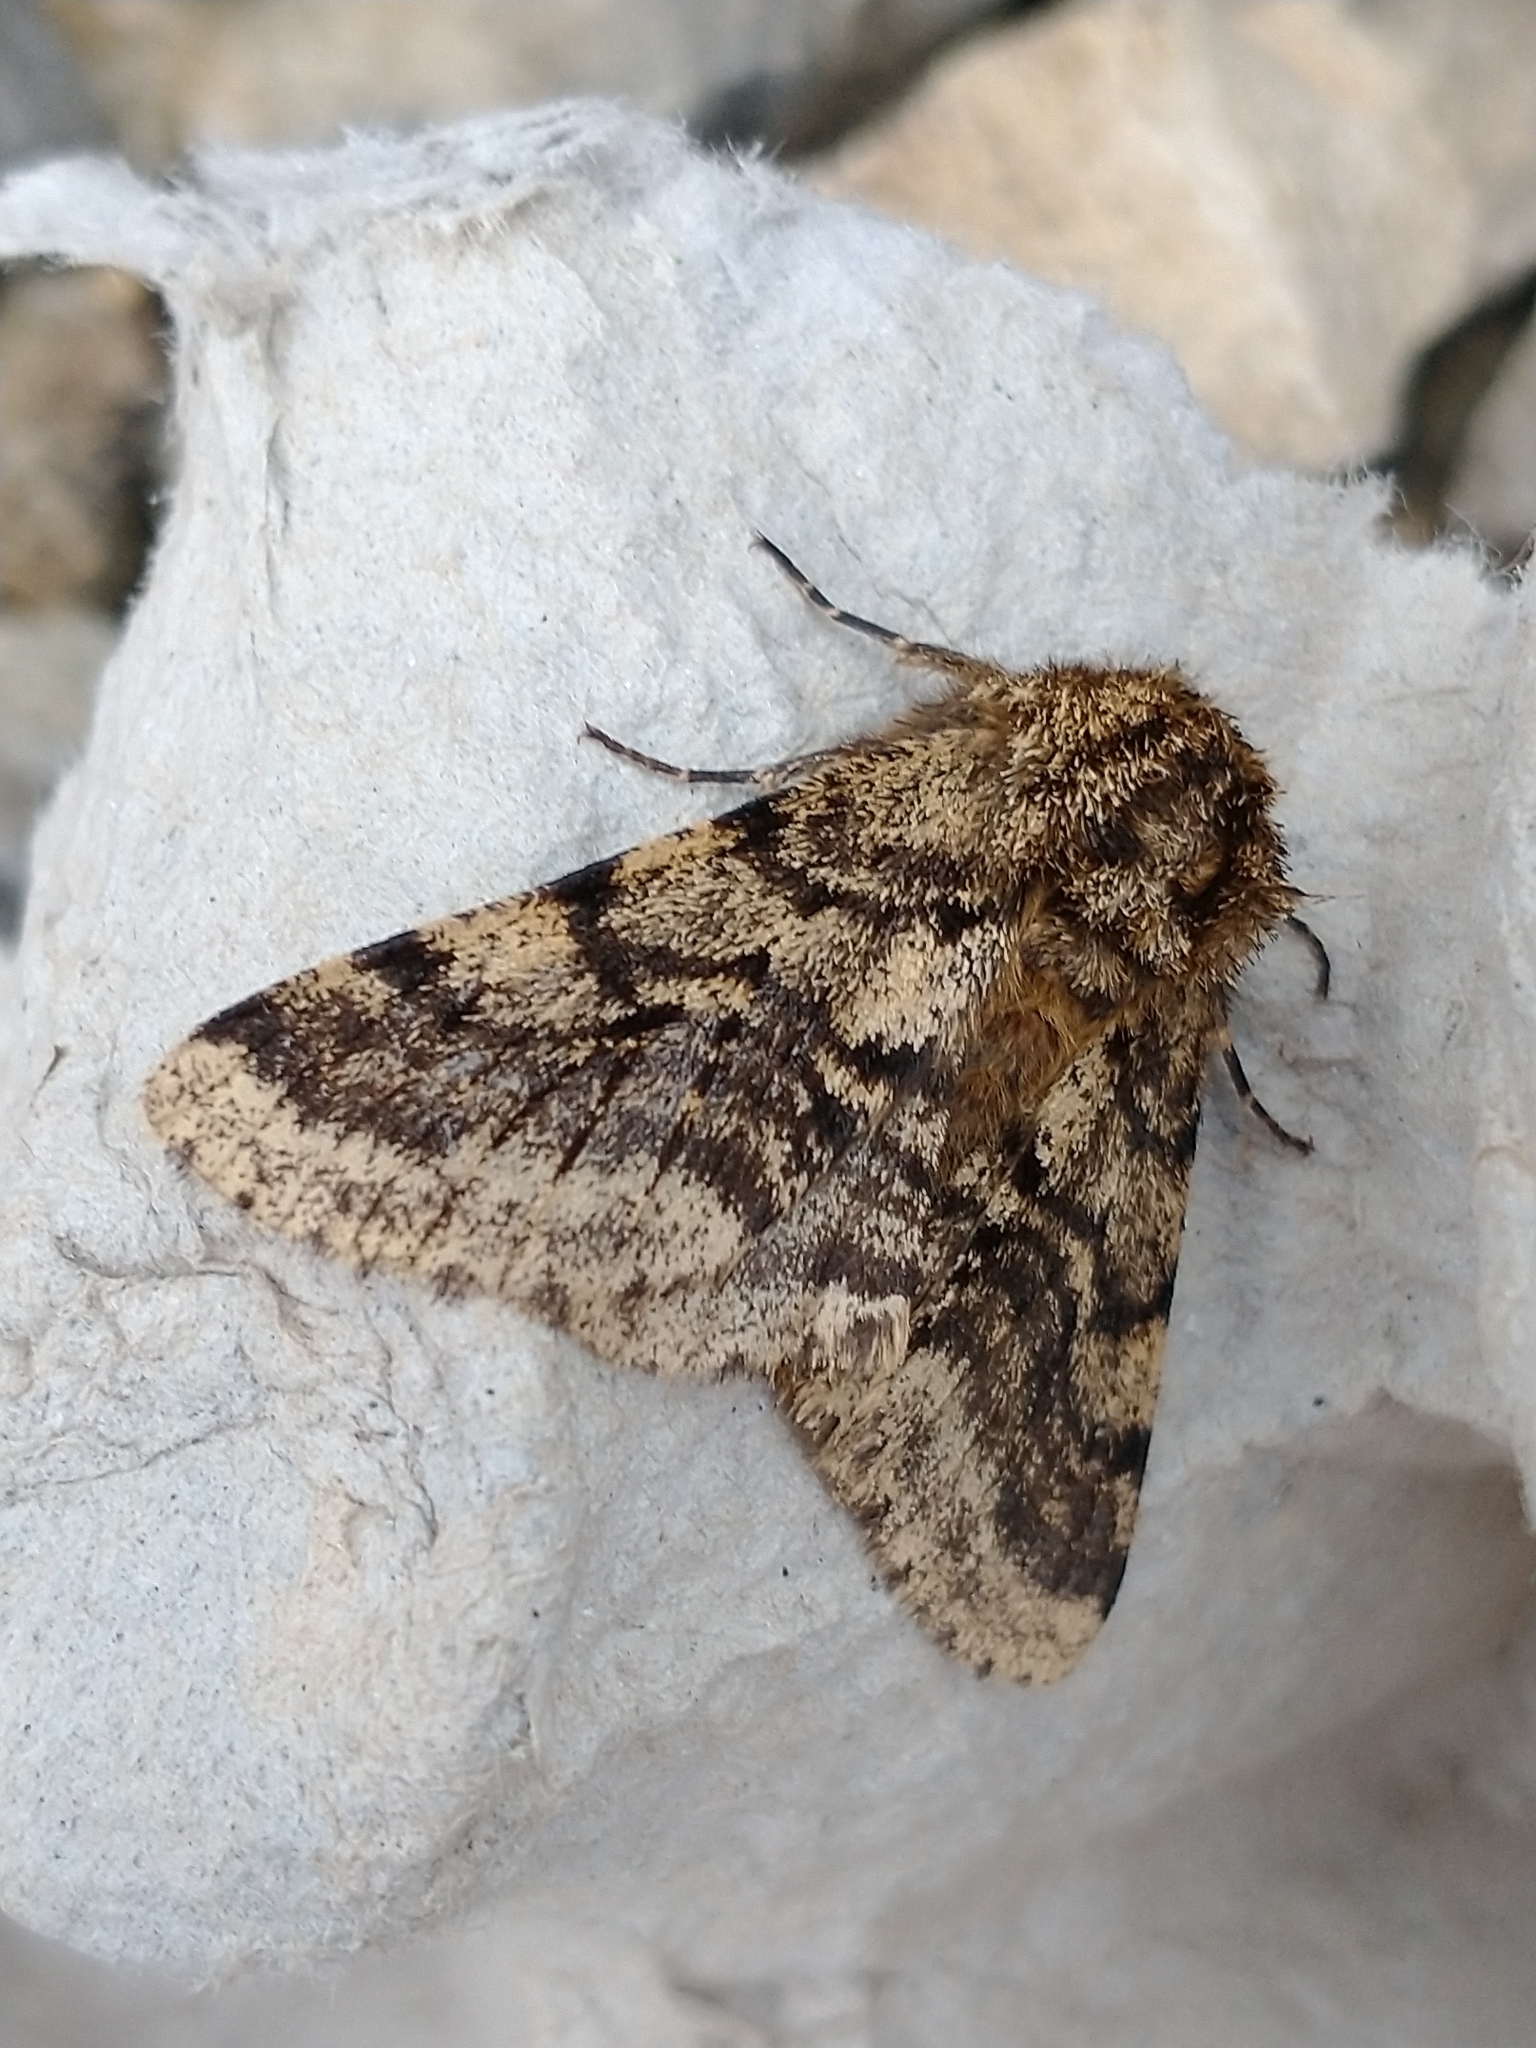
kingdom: Animalia
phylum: Arthropoda
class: Insecta
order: Lepidoptera
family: Geometridae
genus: Lycia
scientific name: Lycia hirtaria
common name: Brindled beauty
